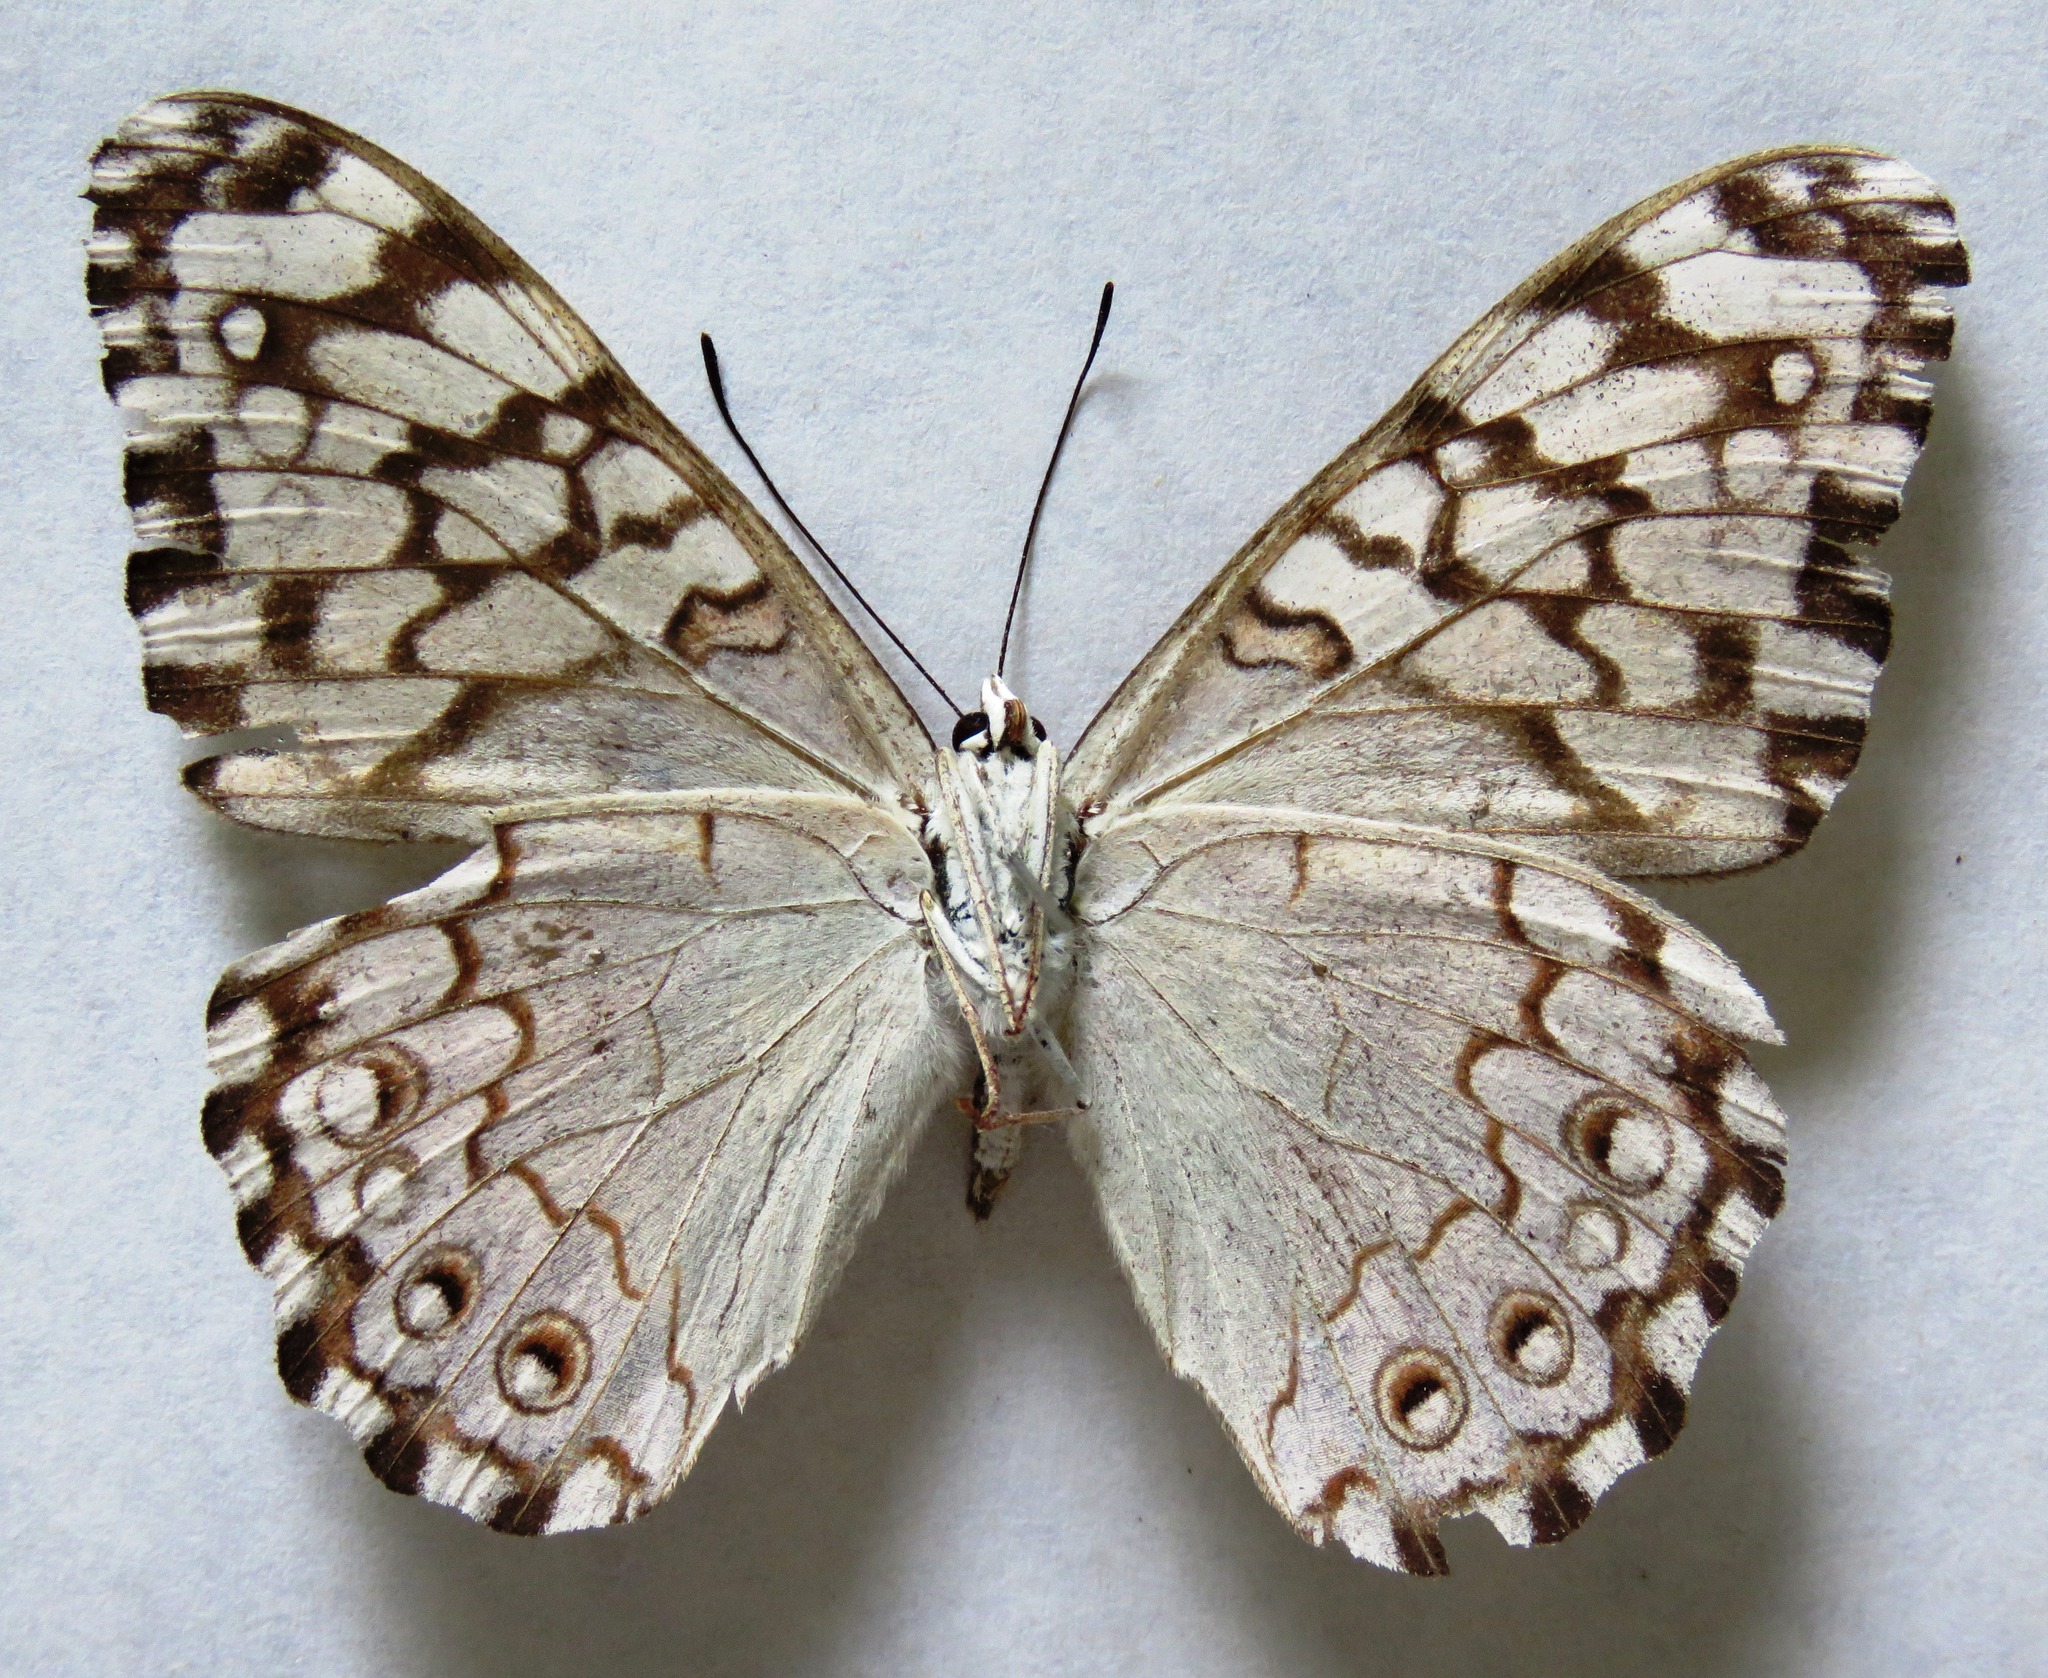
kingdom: Animalia
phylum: Arthropoda
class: Insecta
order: Lepidoptera
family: Nymphalidae
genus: Hamadryas
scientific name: Hamadryas februa
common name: Gray cracker
